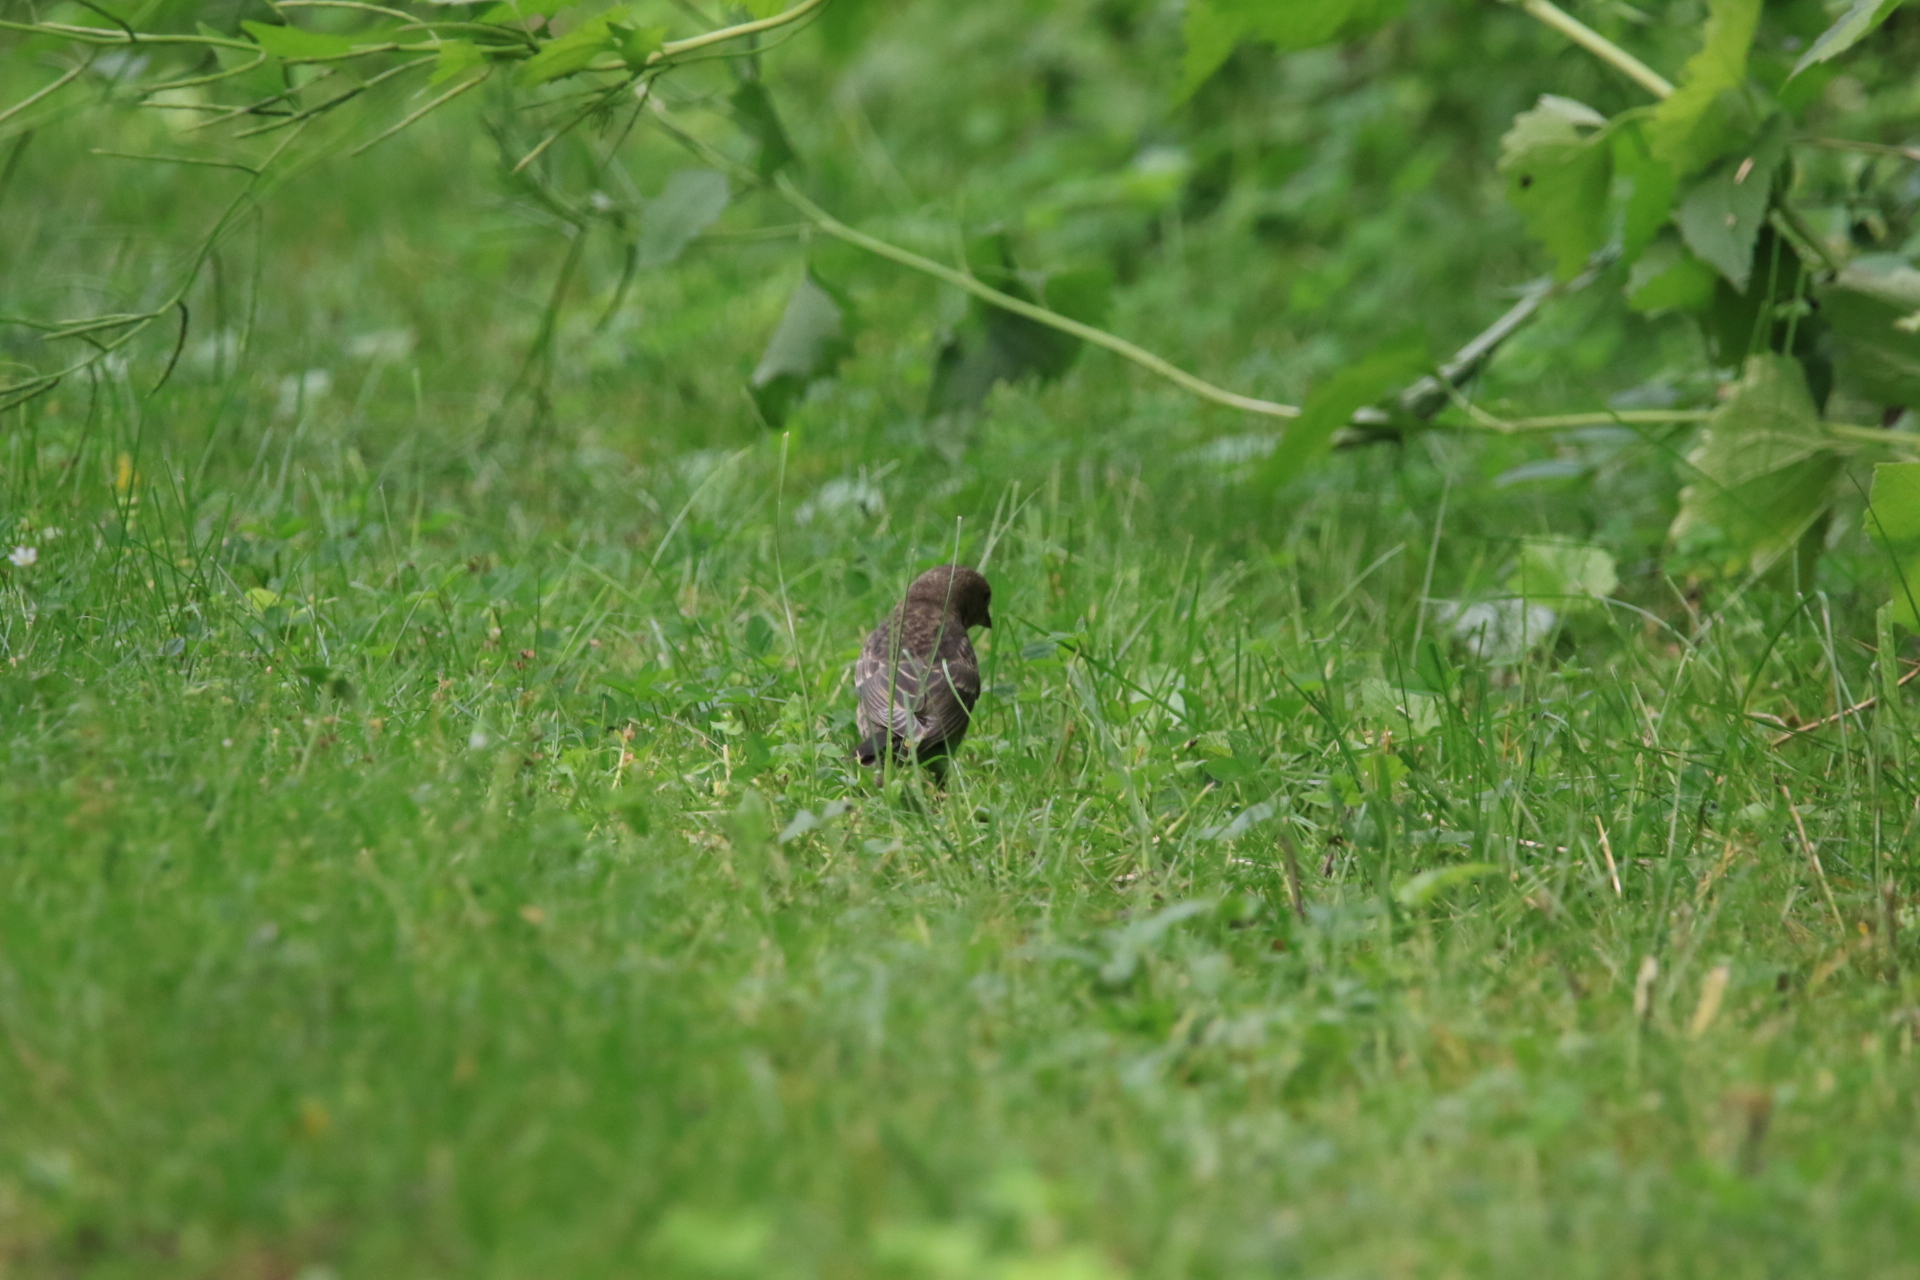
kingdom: Animalia
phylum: Chordata
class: Aves
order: Passeriformes
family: Icteridae
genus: Molothrus
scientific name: Molothrus ater
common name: Brown-headed cowbird
